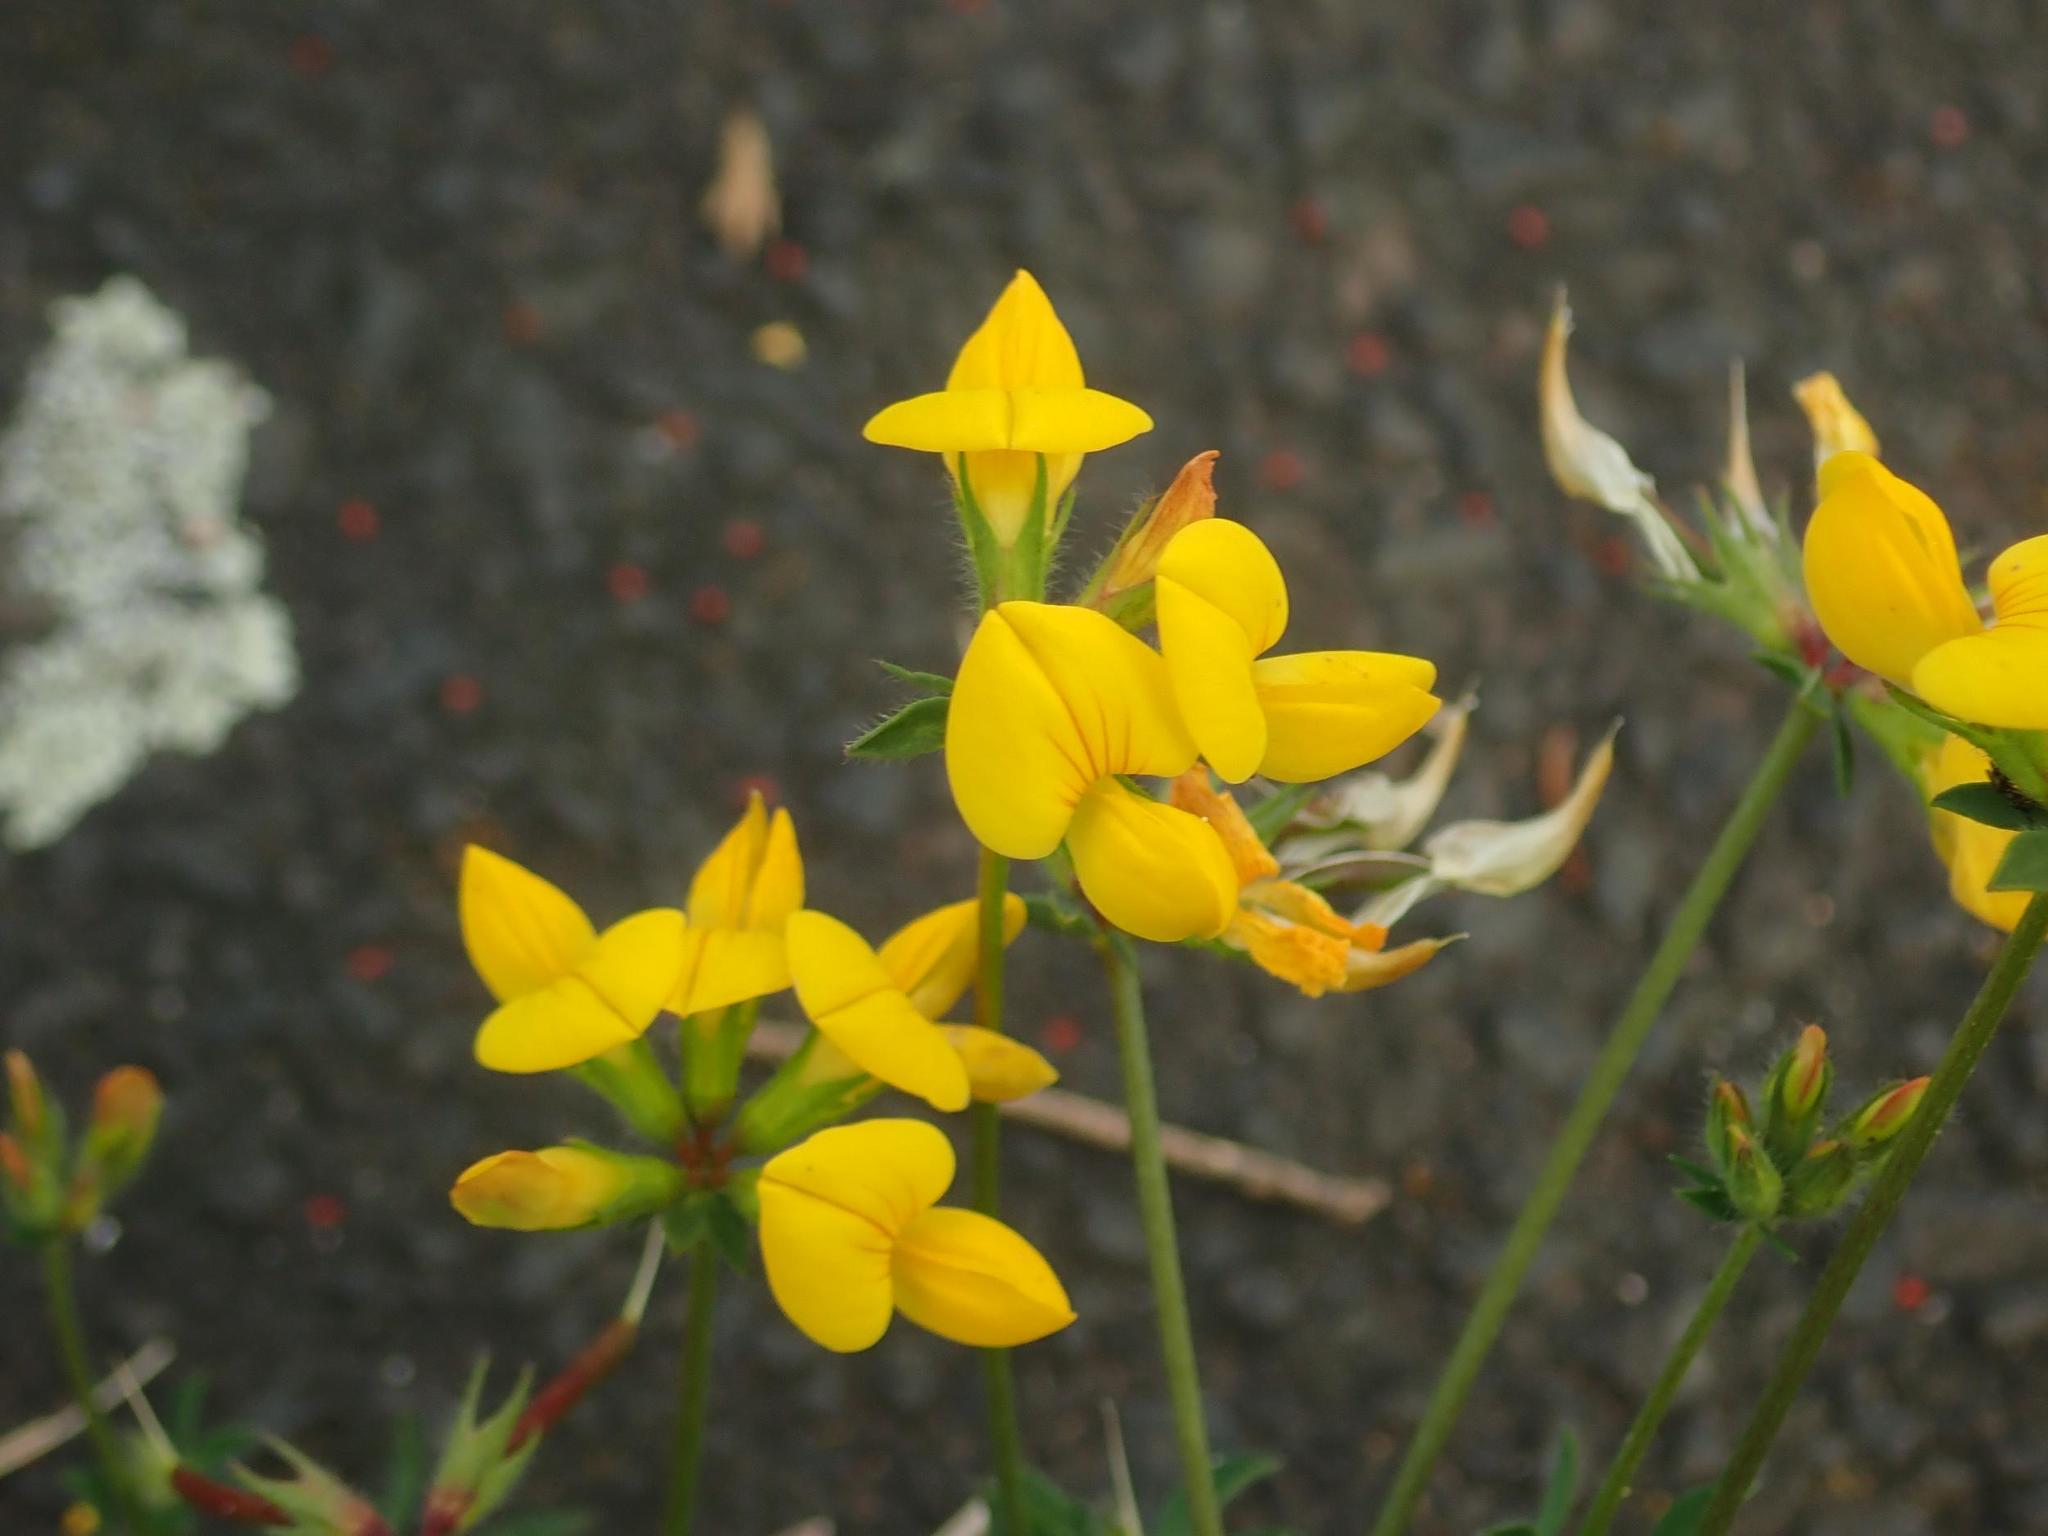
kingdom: Plantae
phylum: Tracheophyta
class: Magnoliopsida
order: Fabales
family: Fabaceae
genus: Lotus
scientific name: Lotus corniculatus
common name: Common bird's-foot-trefoil
